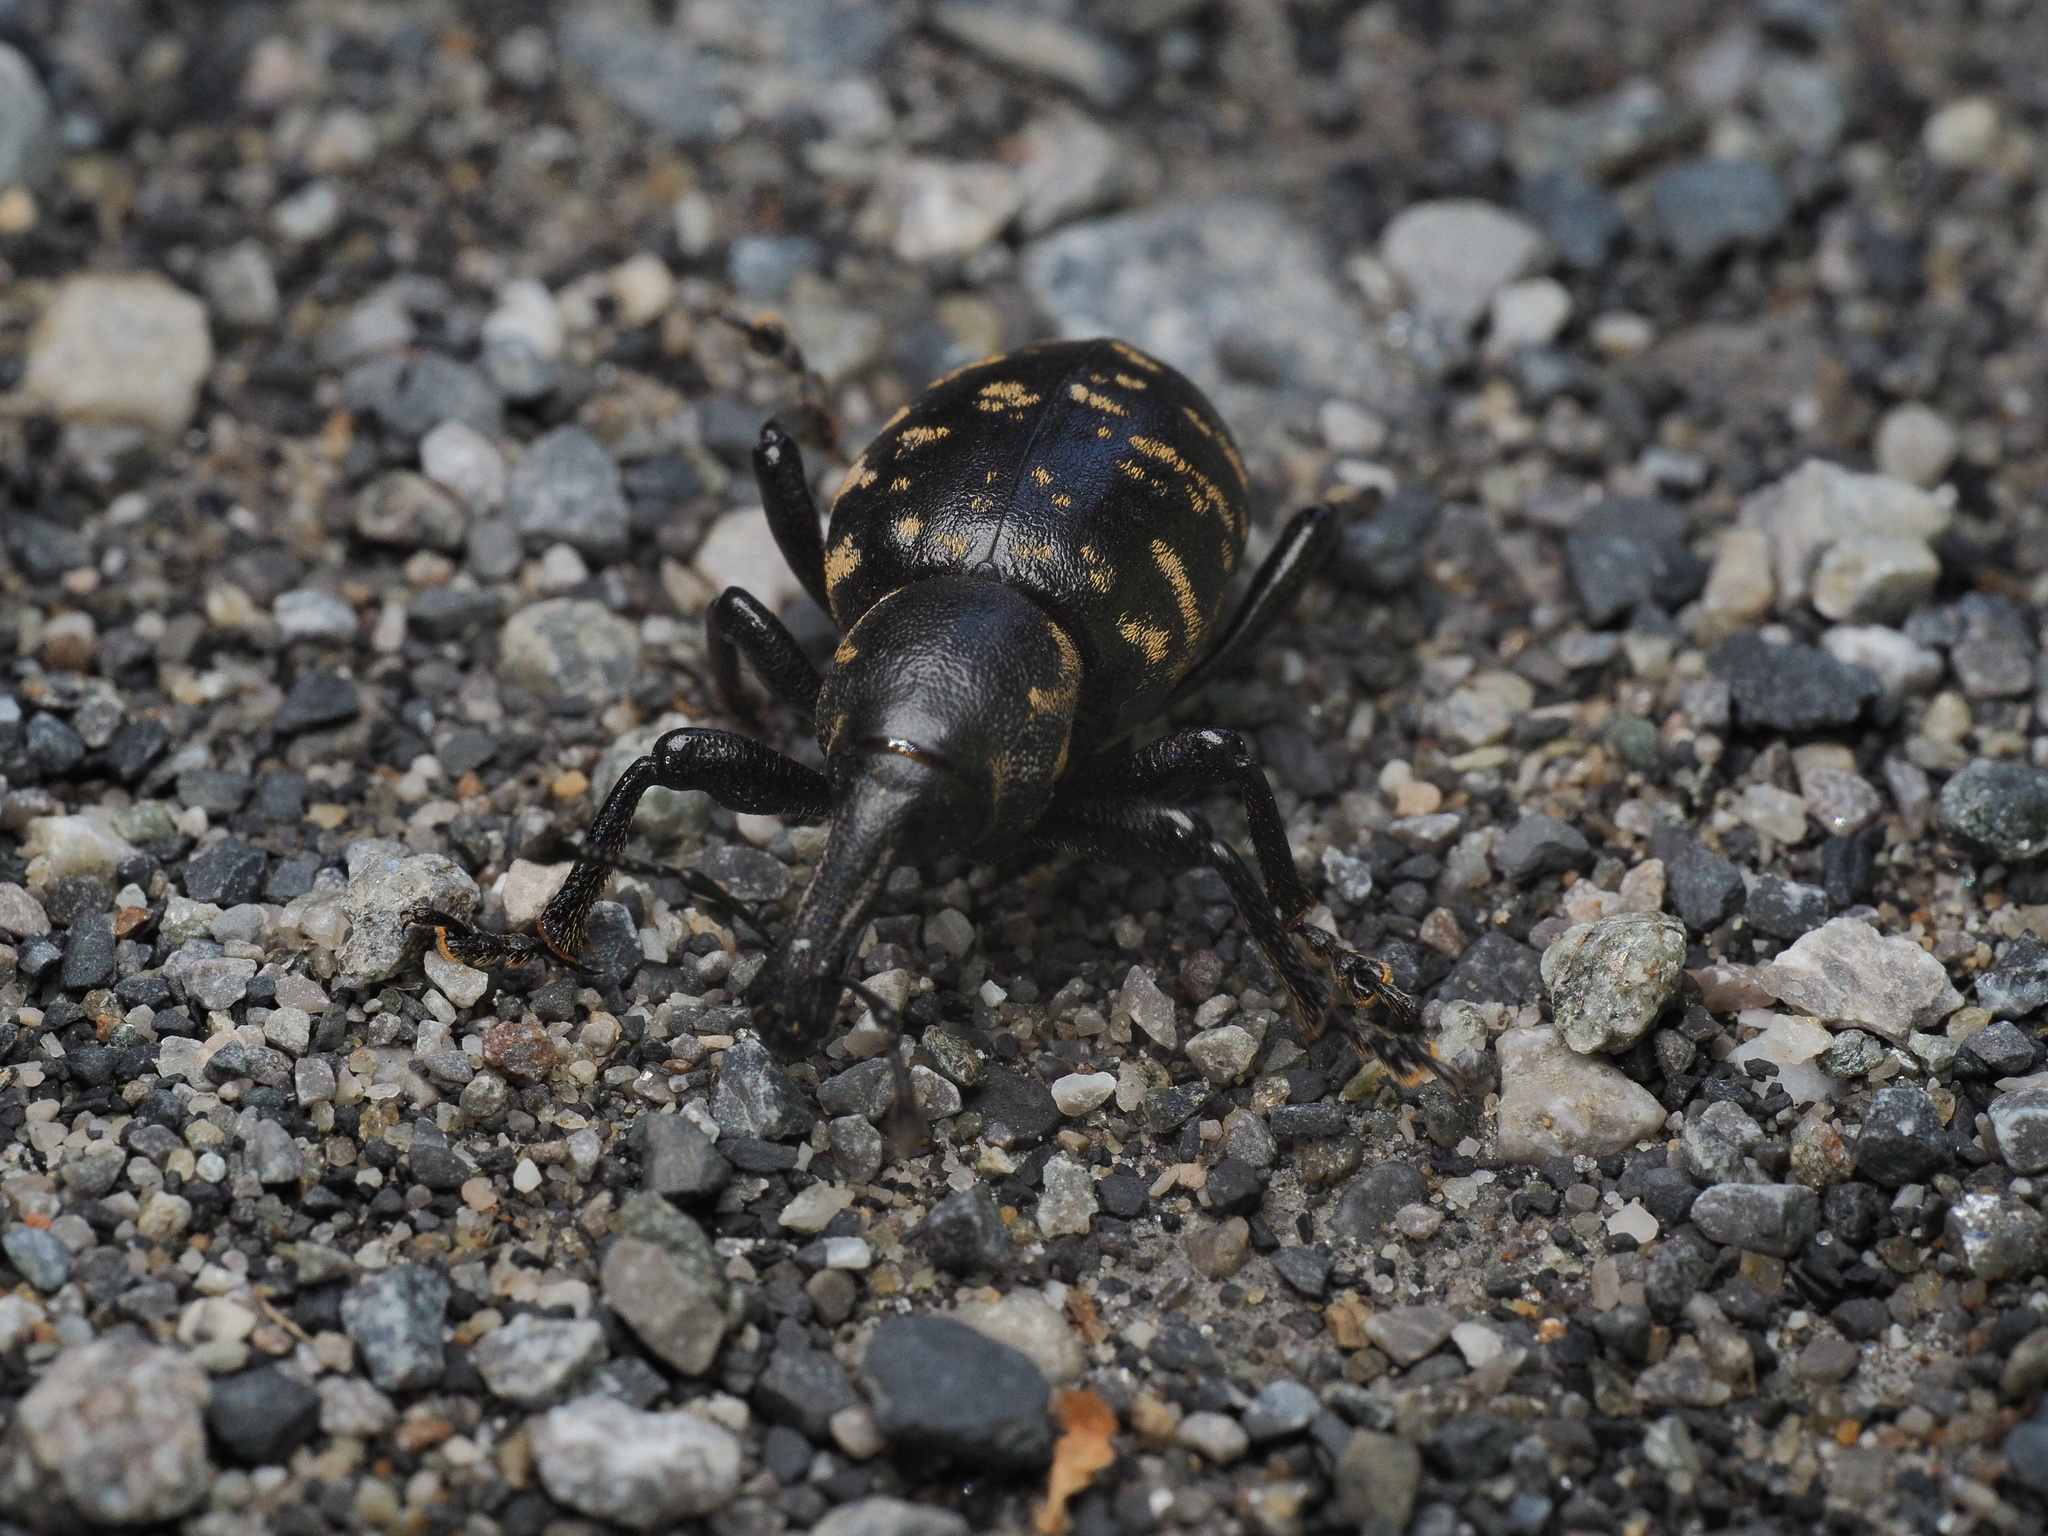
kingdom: Animalia
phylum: Arthropoda
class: Insecta
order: Coleoptera
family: Curculionidae
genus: Liparus
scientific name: Liparus glabrirostris
